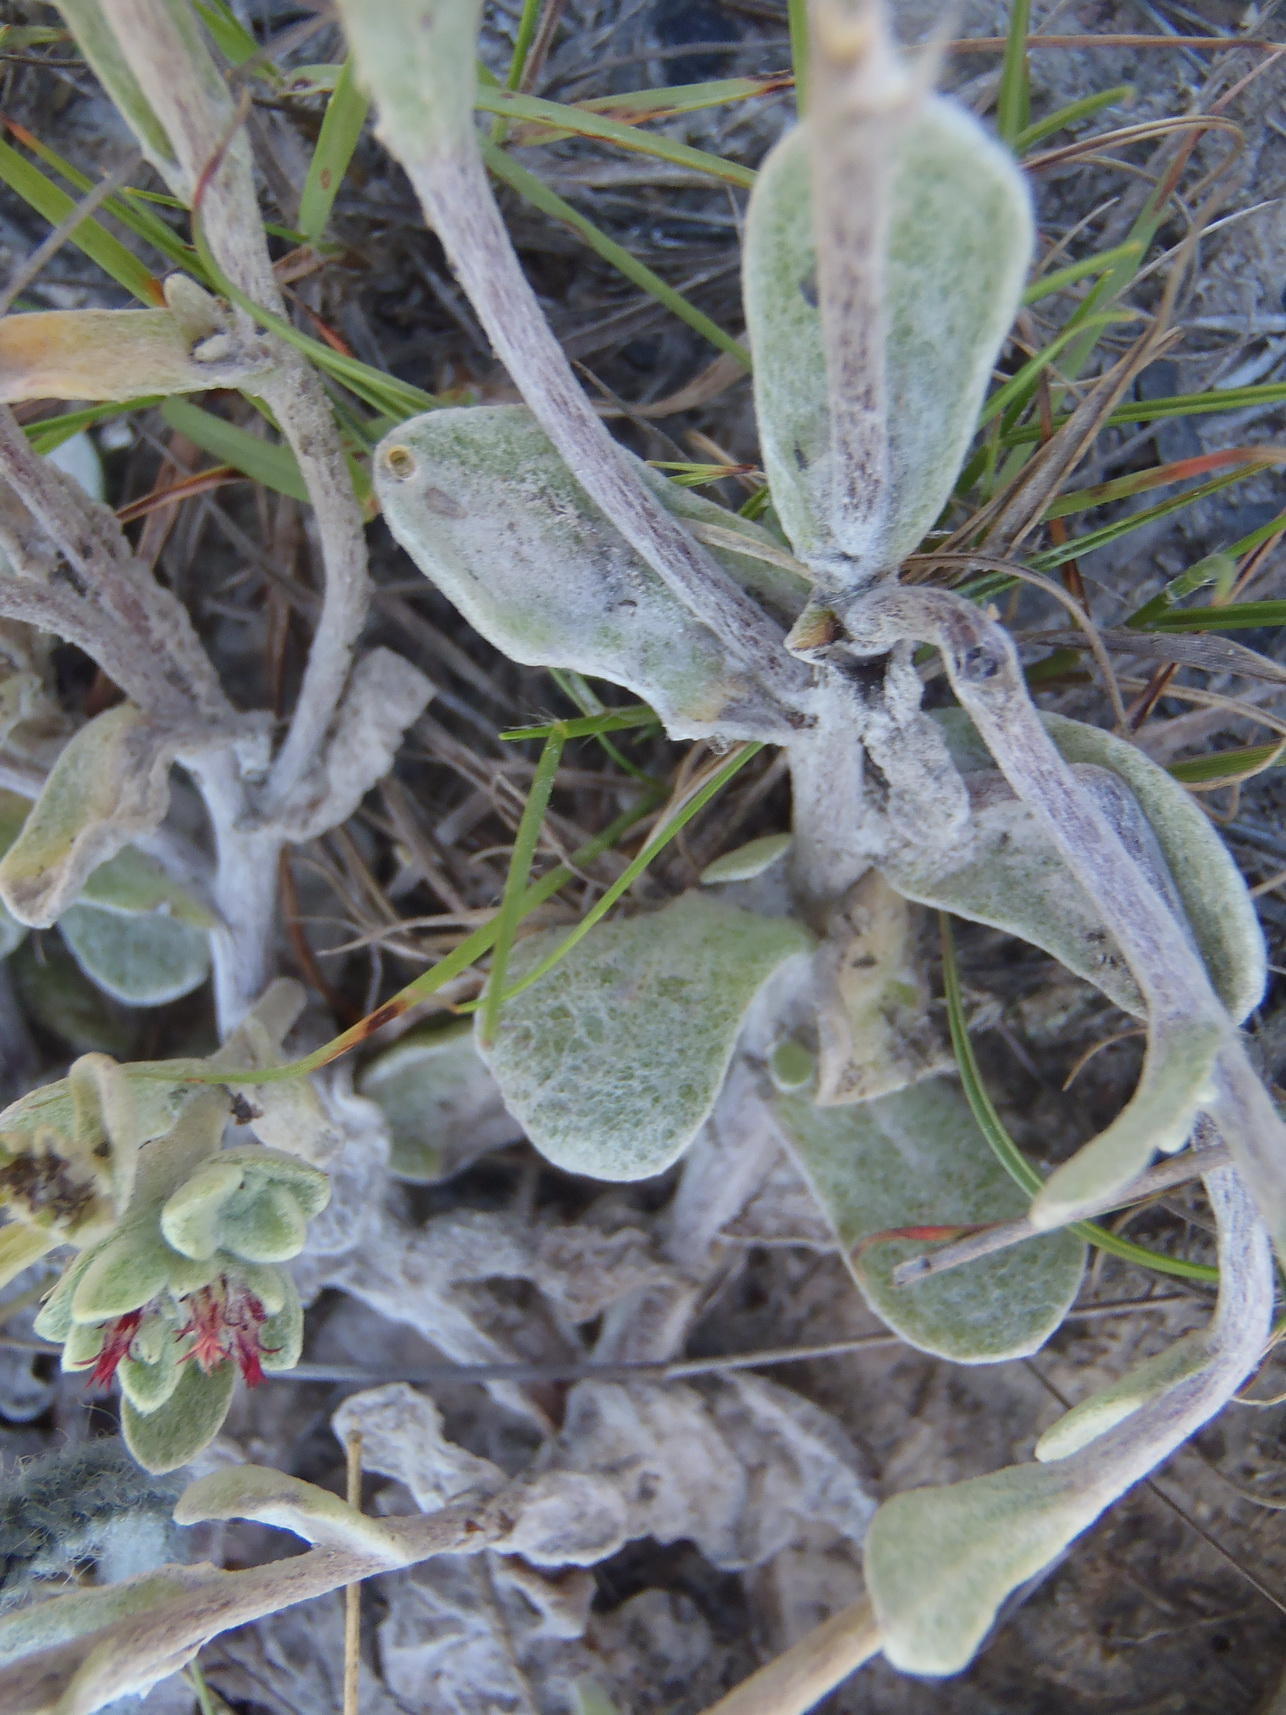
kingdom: Plantae
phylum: Tracheophyta
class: Magnoliopsida
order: Asterales
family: Asteraceae
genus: Helichrysum
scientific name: Helichrysum spiralepis
